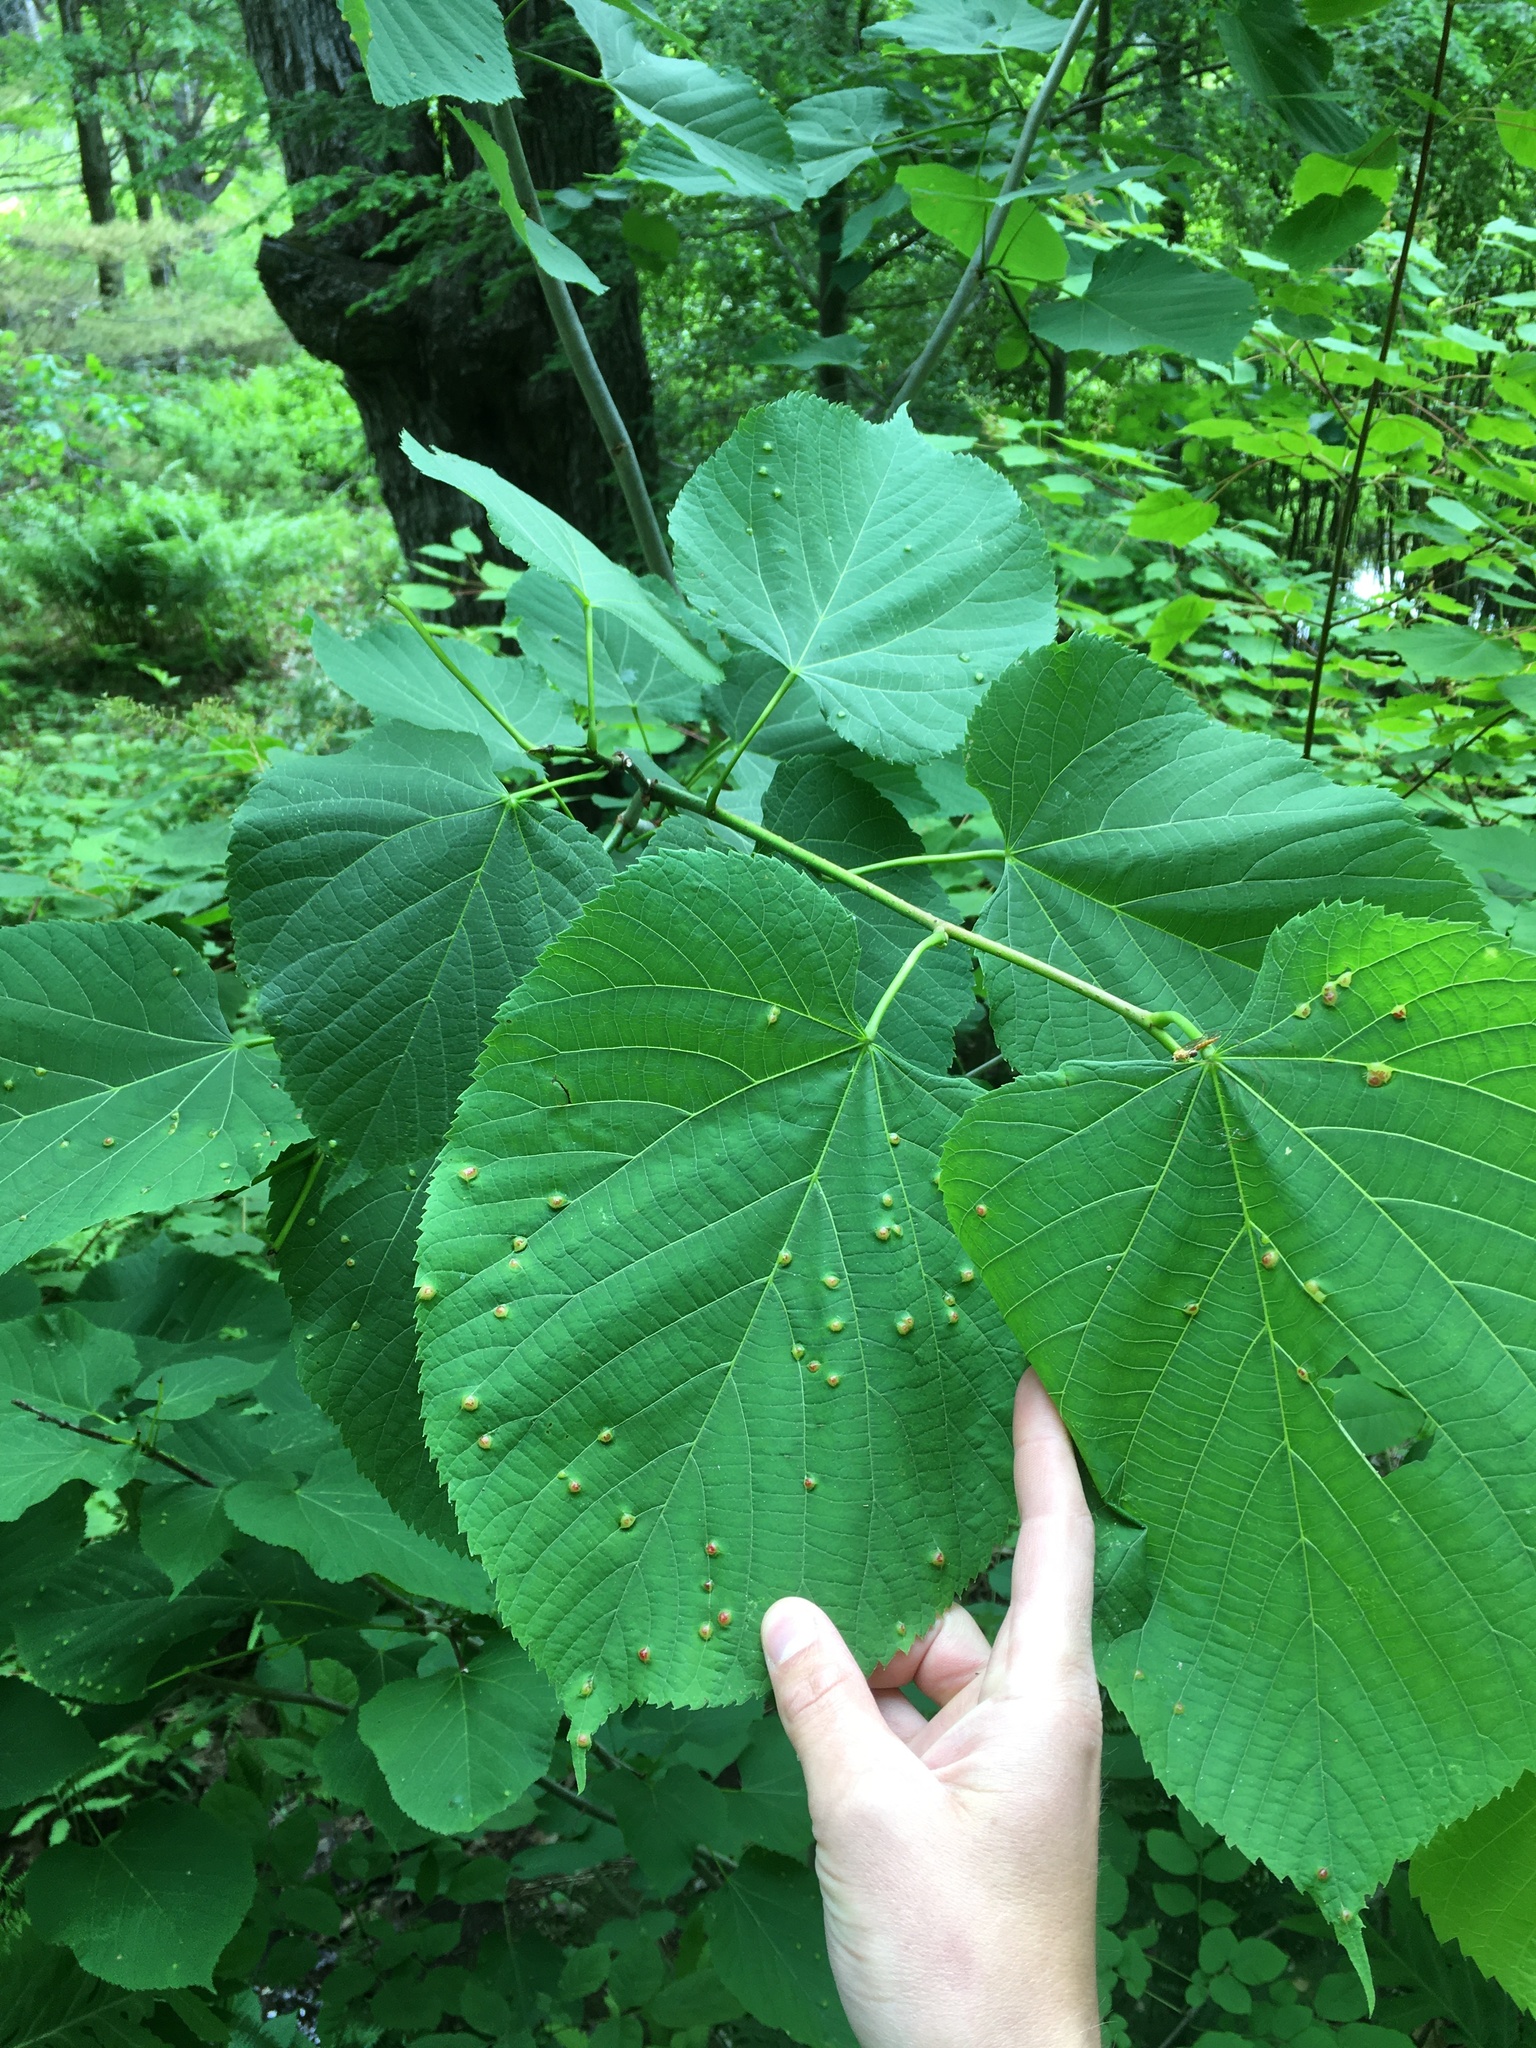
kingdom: Plantae
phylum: Tracheophyta
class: Magnoliopsida
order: Malvales
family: Malvaceae
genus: Tilia
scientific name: Tilia americana
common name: Basswood
